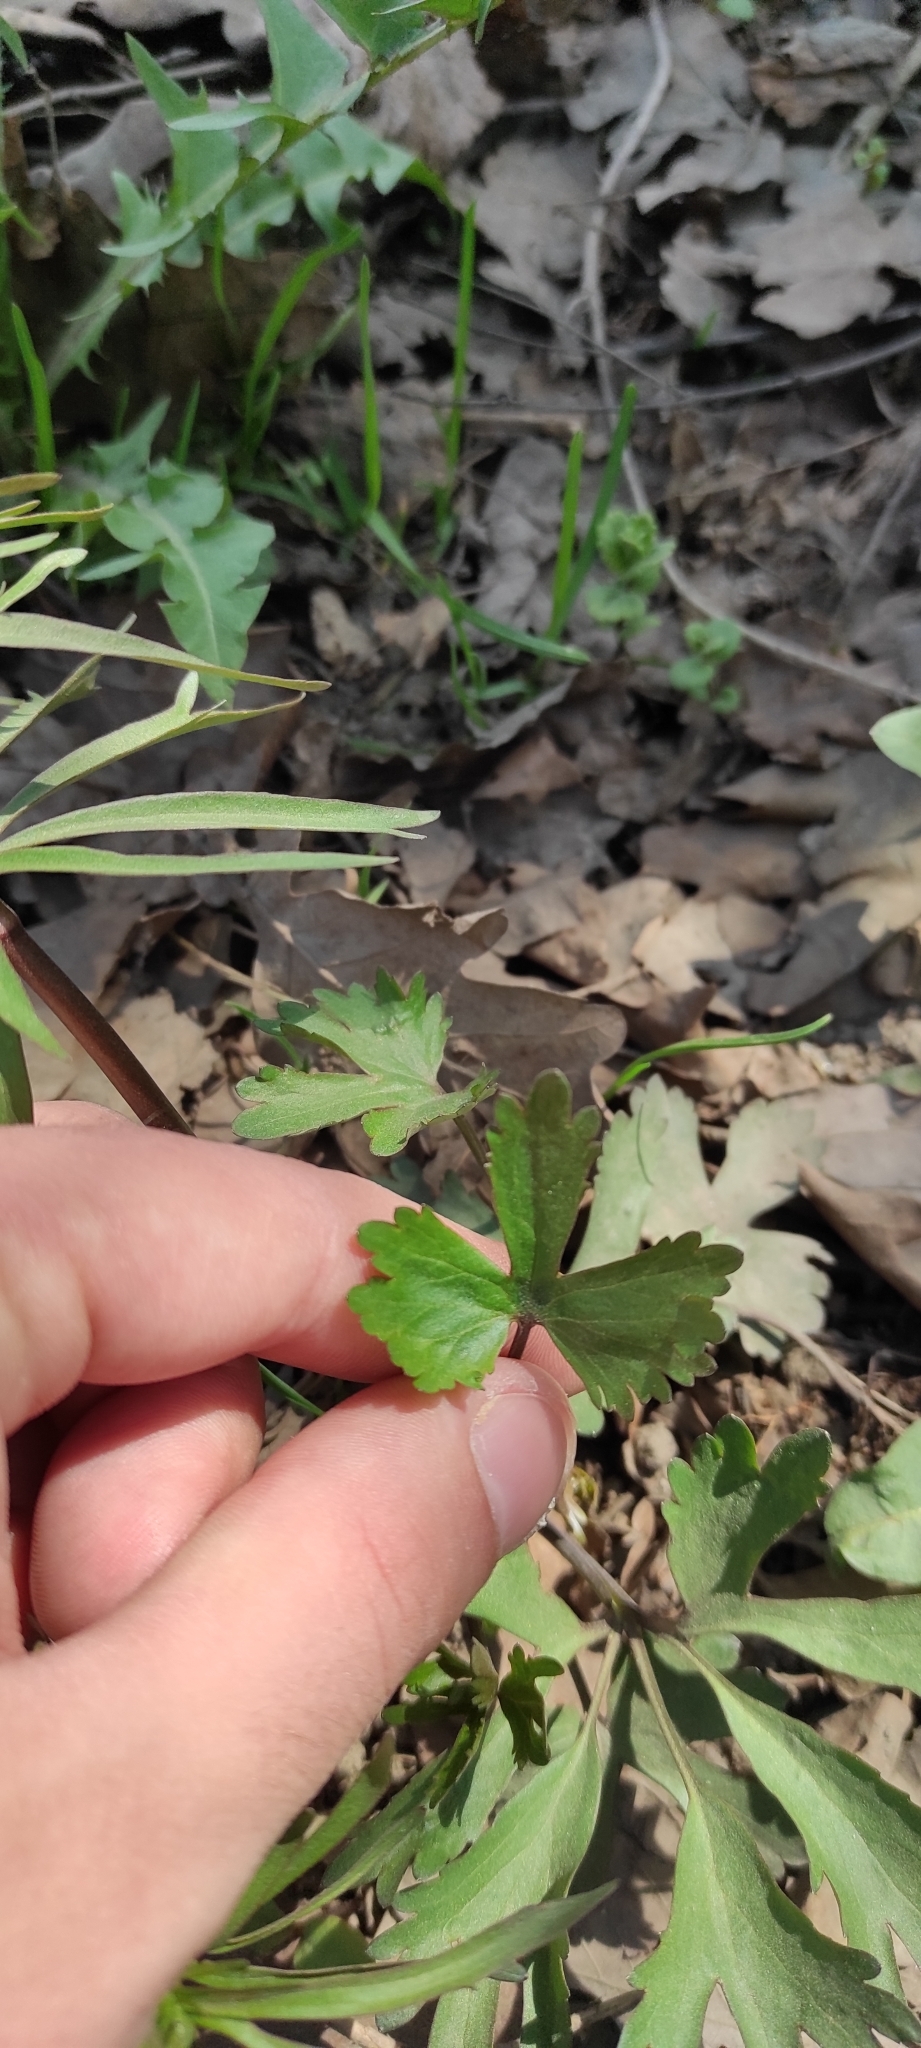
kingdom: Plantae
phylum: Tracheophyta
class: Magnoliopsida
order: Ranunculales
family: Ranunculaceae
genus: Ranunculus
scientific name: Ranunculus auricomus
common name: Goldilocks buttercup
